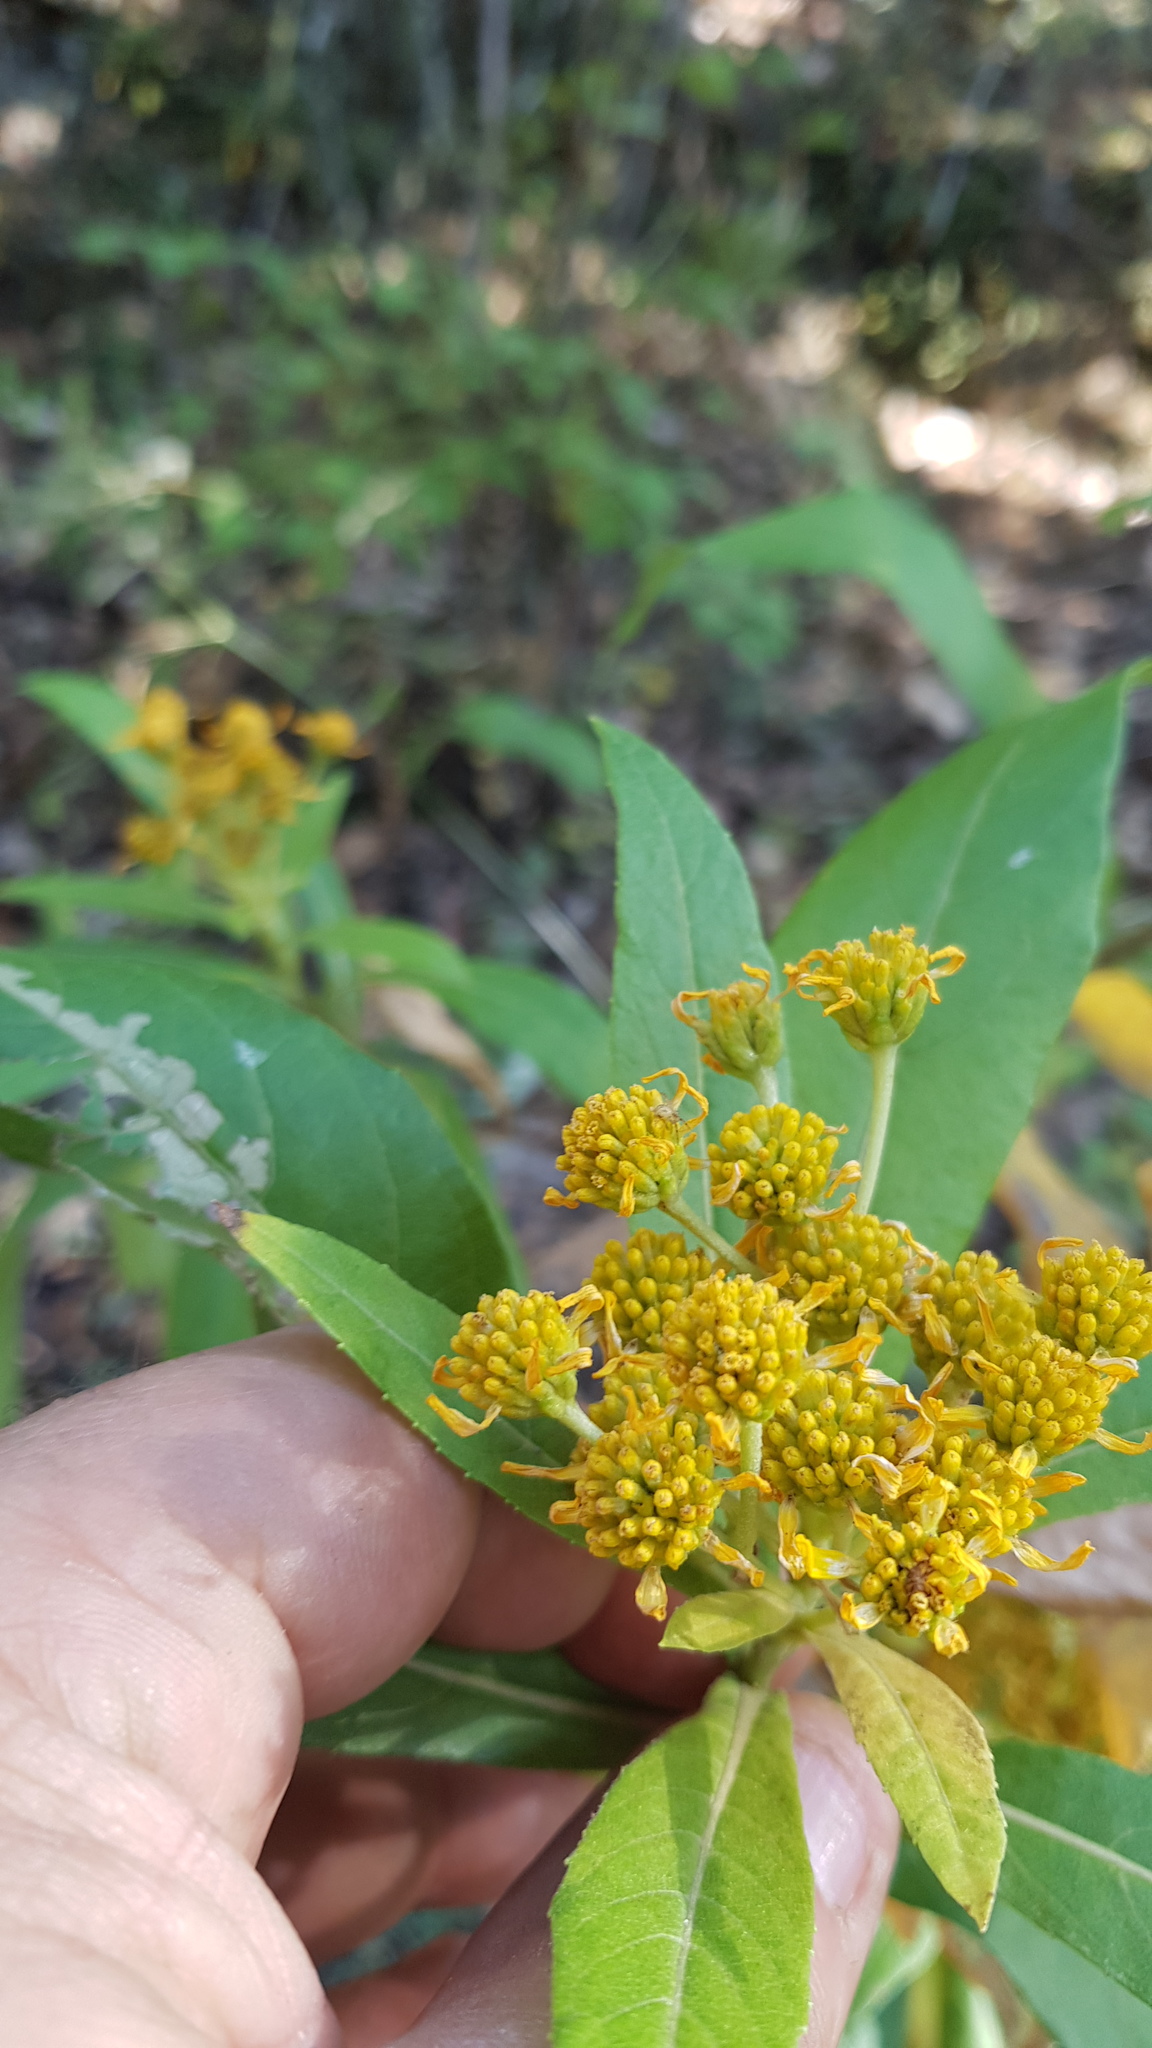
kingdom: Plantae
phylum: Tracheophyta
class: Magnoliopsida
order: Asterales
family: Asteraceae
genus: Verbesina
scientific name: Verbesina perymenioides
